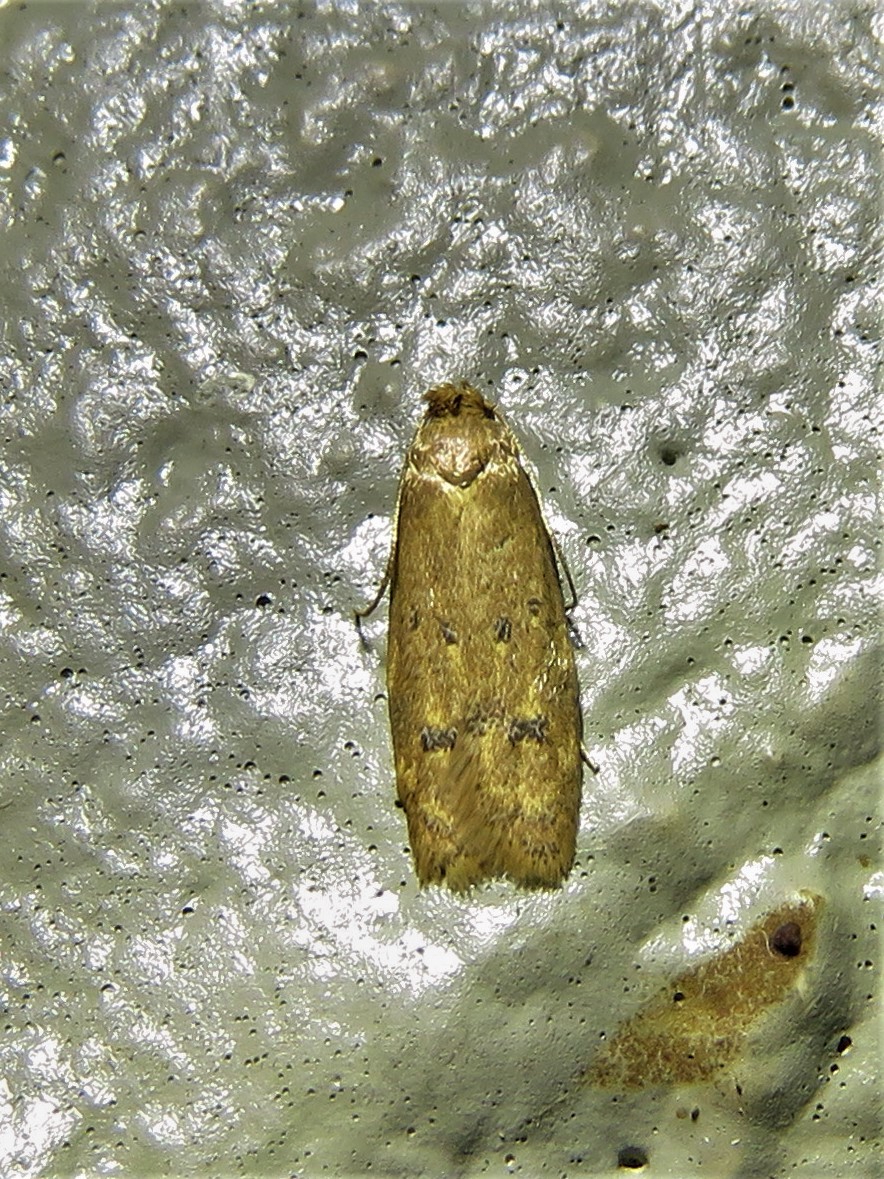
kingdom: Animalia
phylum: Arthropoda
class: Insecta
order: Lepidoptera
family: Autostichidae
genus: Gerdana
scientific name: Gerdana caritella
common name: Gerdana moth
